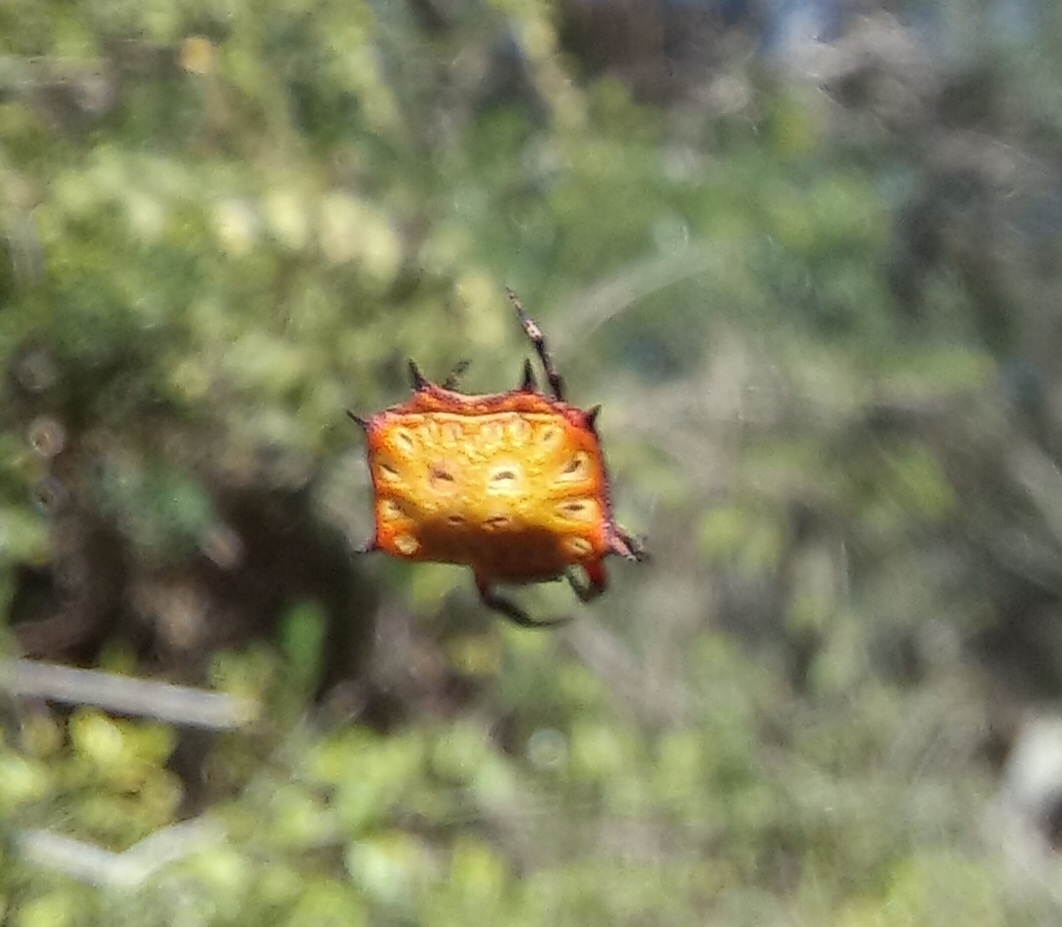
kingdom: Animalia
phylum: Arthropoda
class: Arachnida
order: Araneae
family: Araneidae
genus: Isoxya
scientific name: Isoxya tabulata
